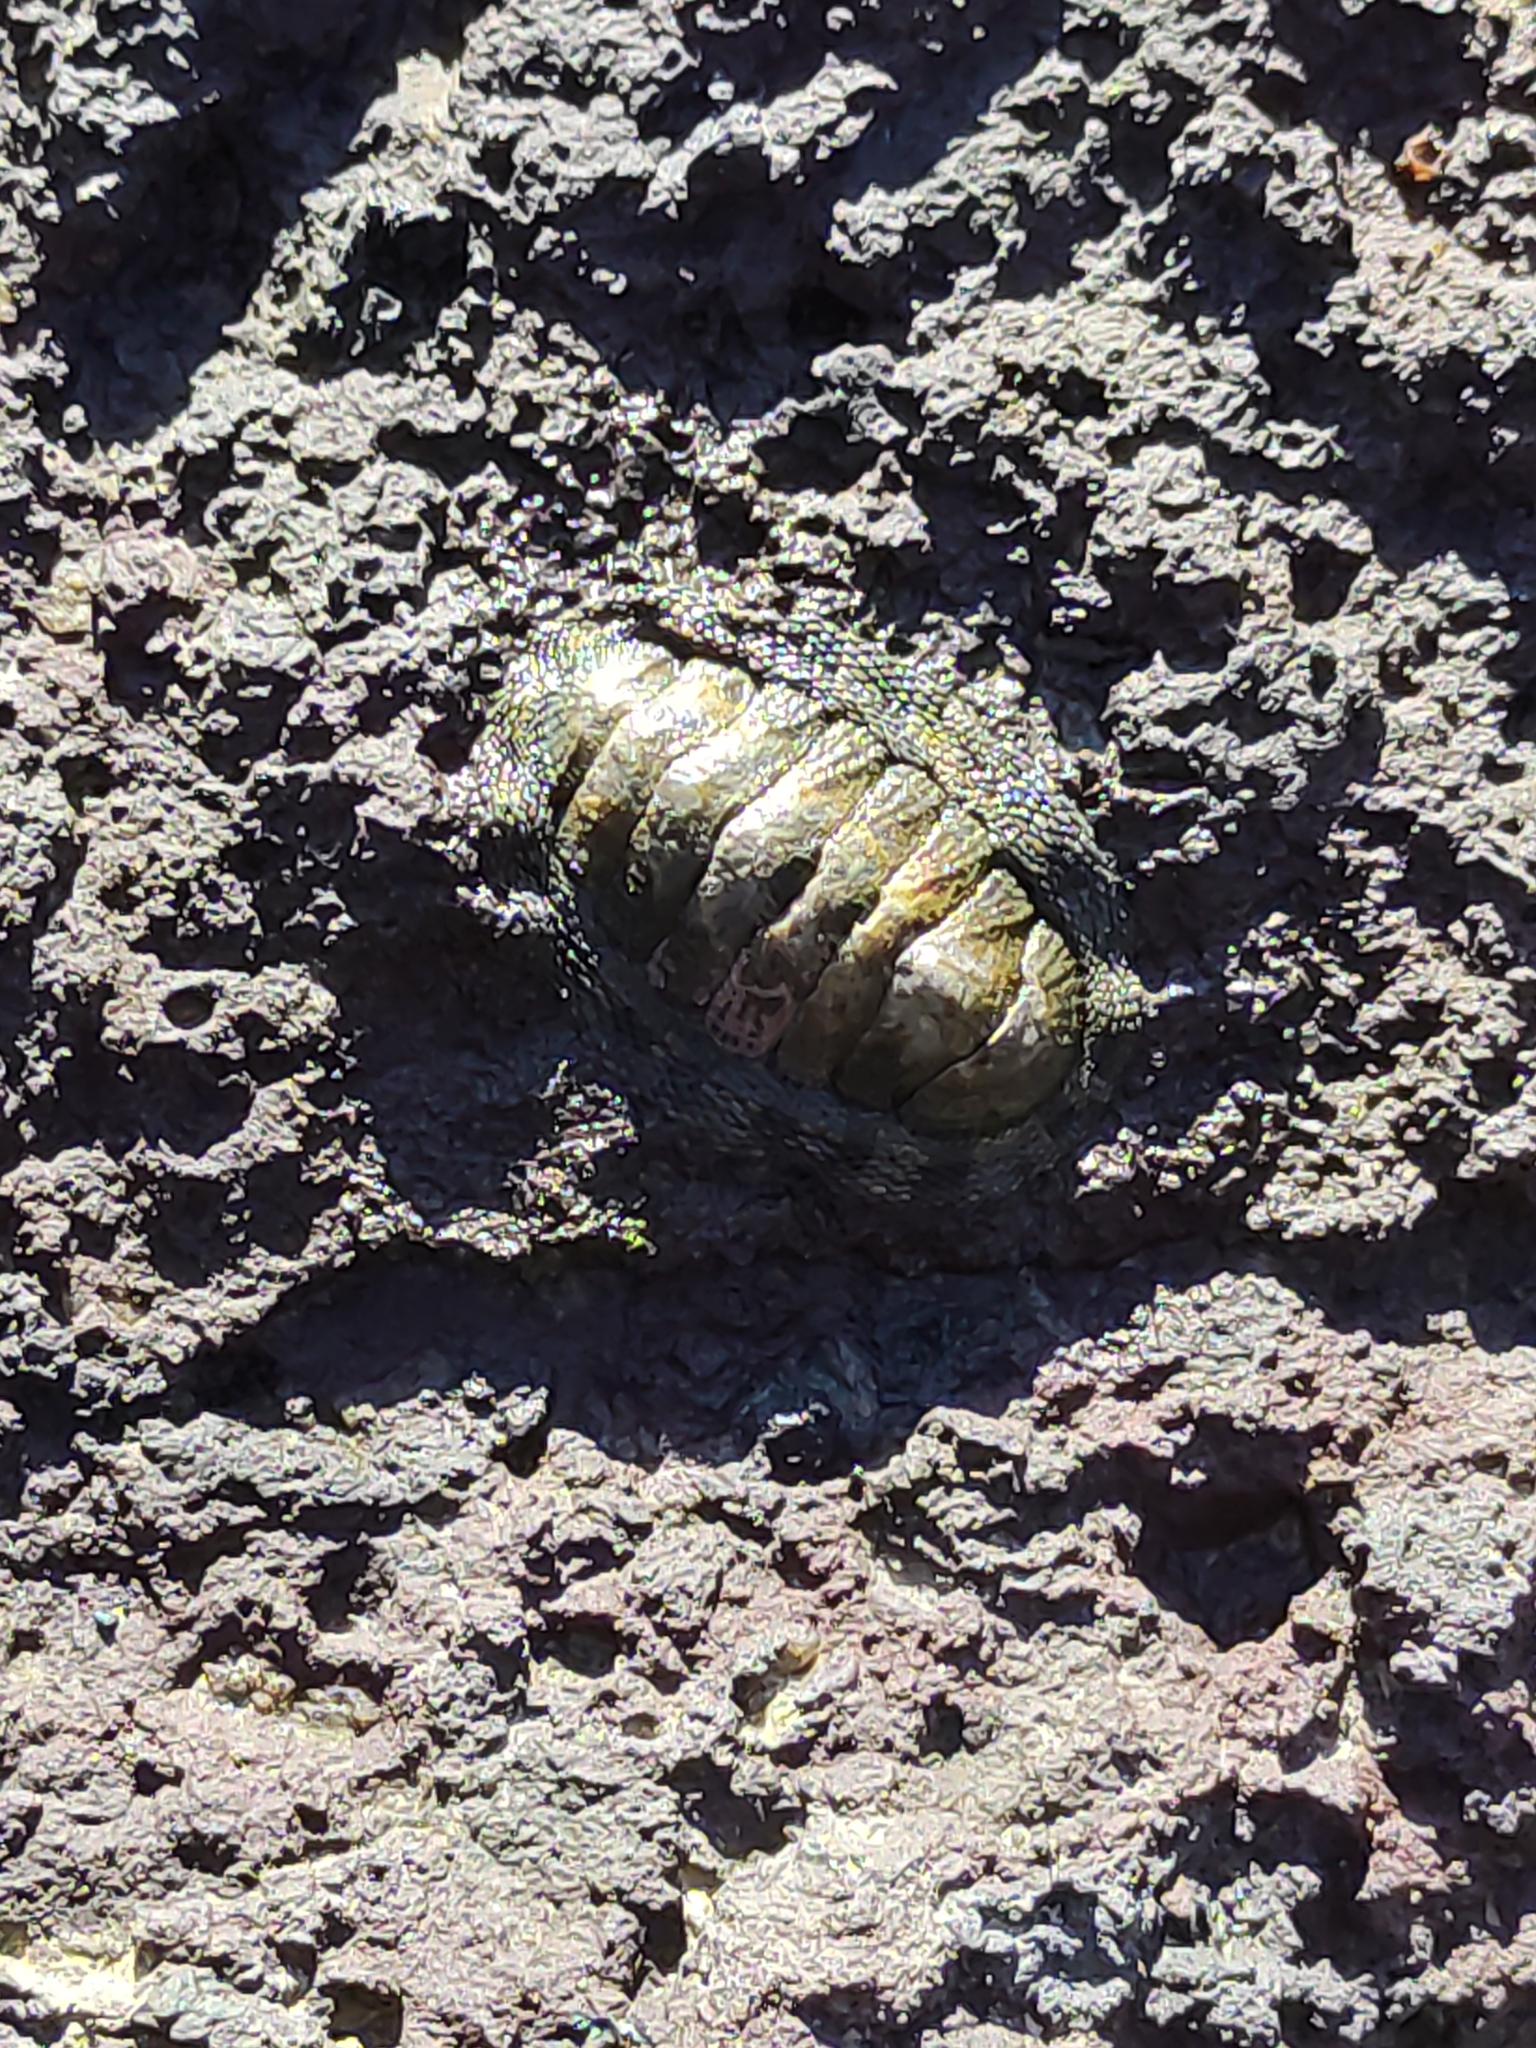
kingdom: Animalia
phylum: Mollusca
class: Polyplacophora
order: Chitonida
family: Chitonidae
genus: Sypharochiton
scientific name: Sypharochiton pelliserpentis
